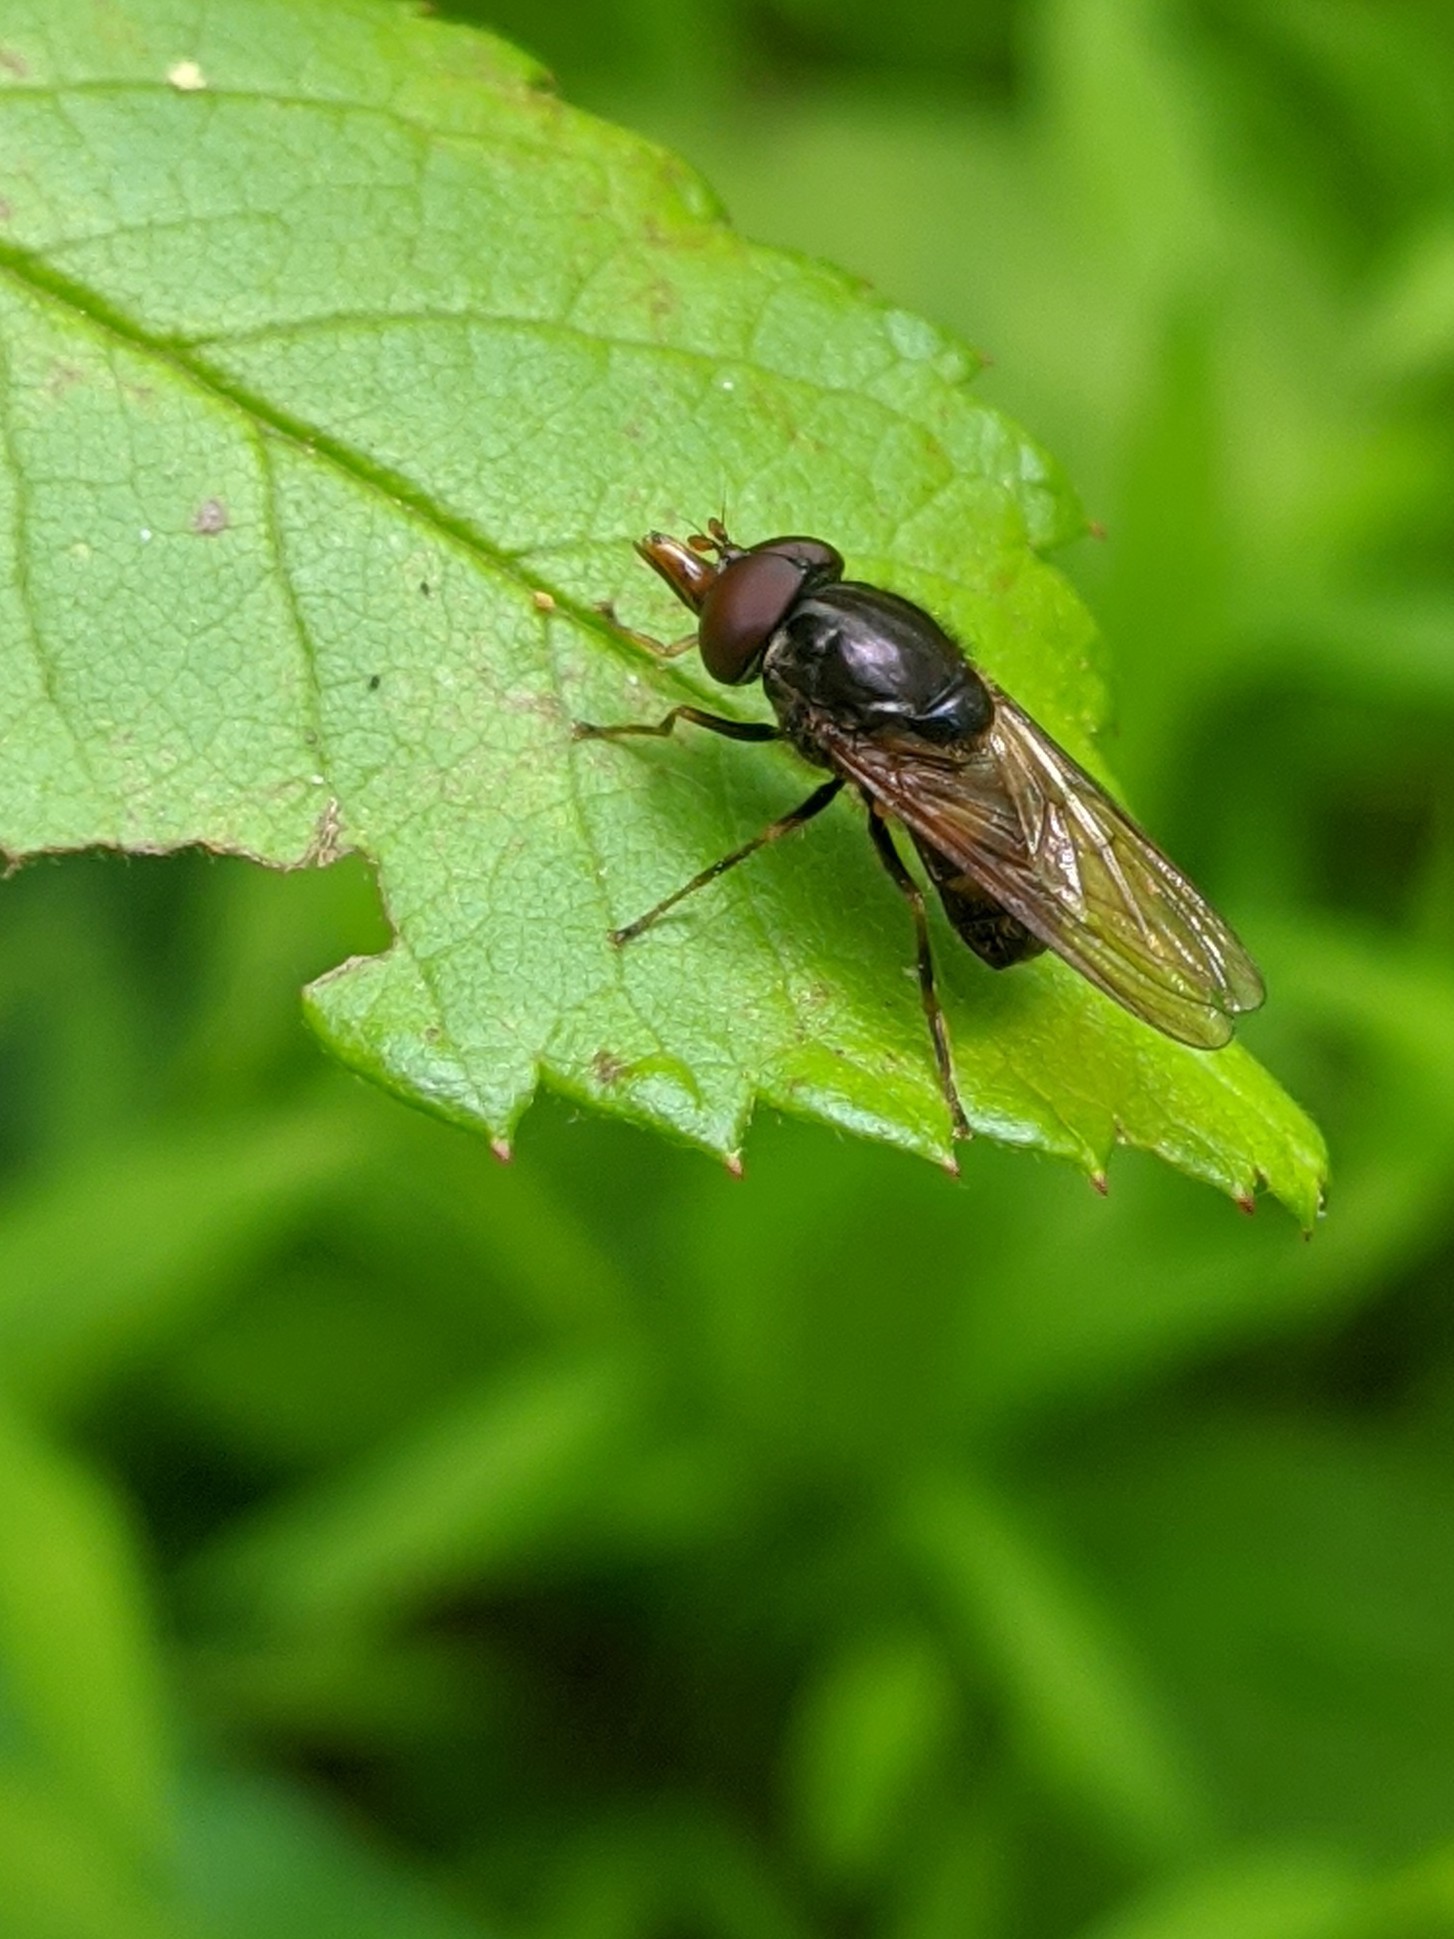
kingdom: Animalia
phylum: Arthropoda
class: Insecta
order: Diptera
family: Syrphidae
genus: Rhingia
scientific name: Rhingia nasica
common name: American snout fly
